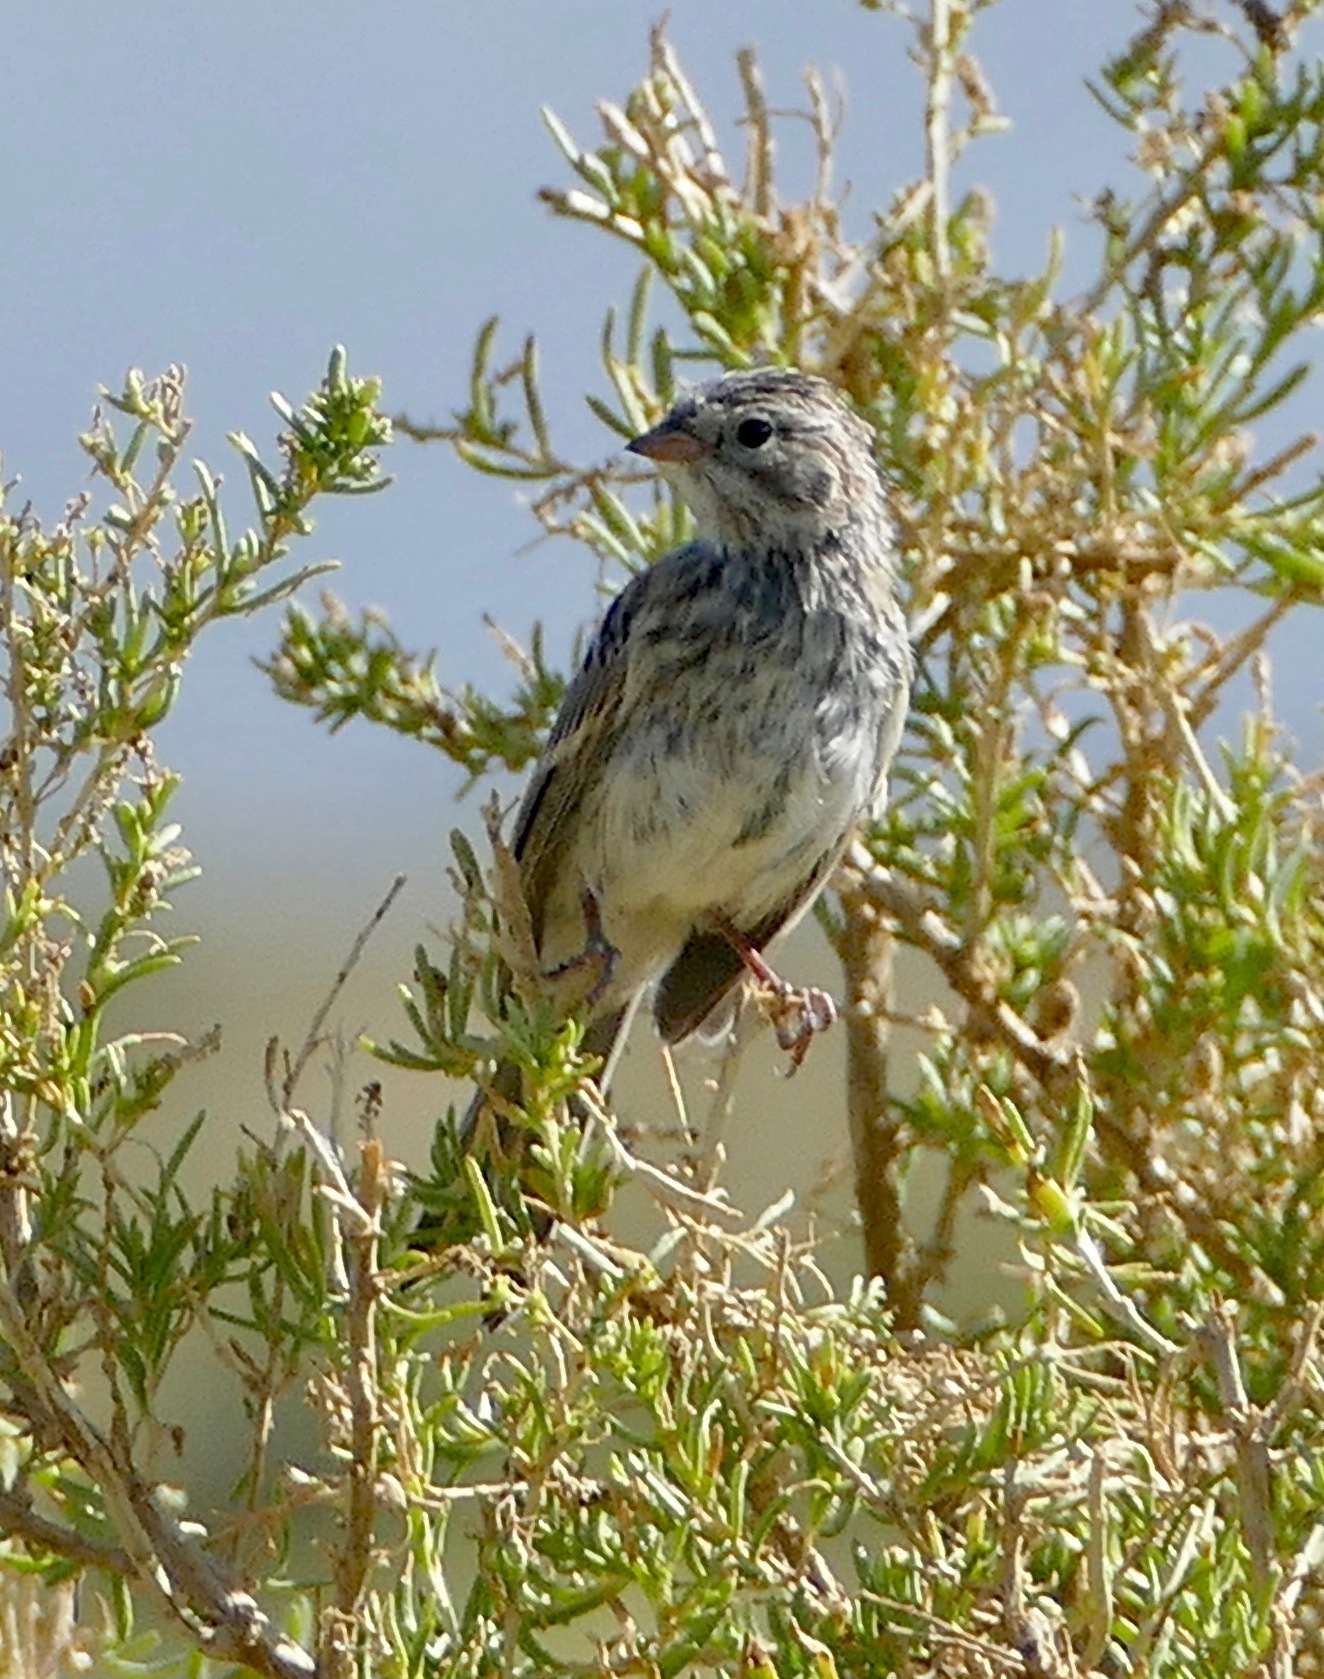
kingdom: Animalia
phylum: Chordata
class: Aves
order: Passeriformes
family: Passerellidae
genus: Spizella
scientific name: Spizella breweri
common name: Brewer's sparrow
